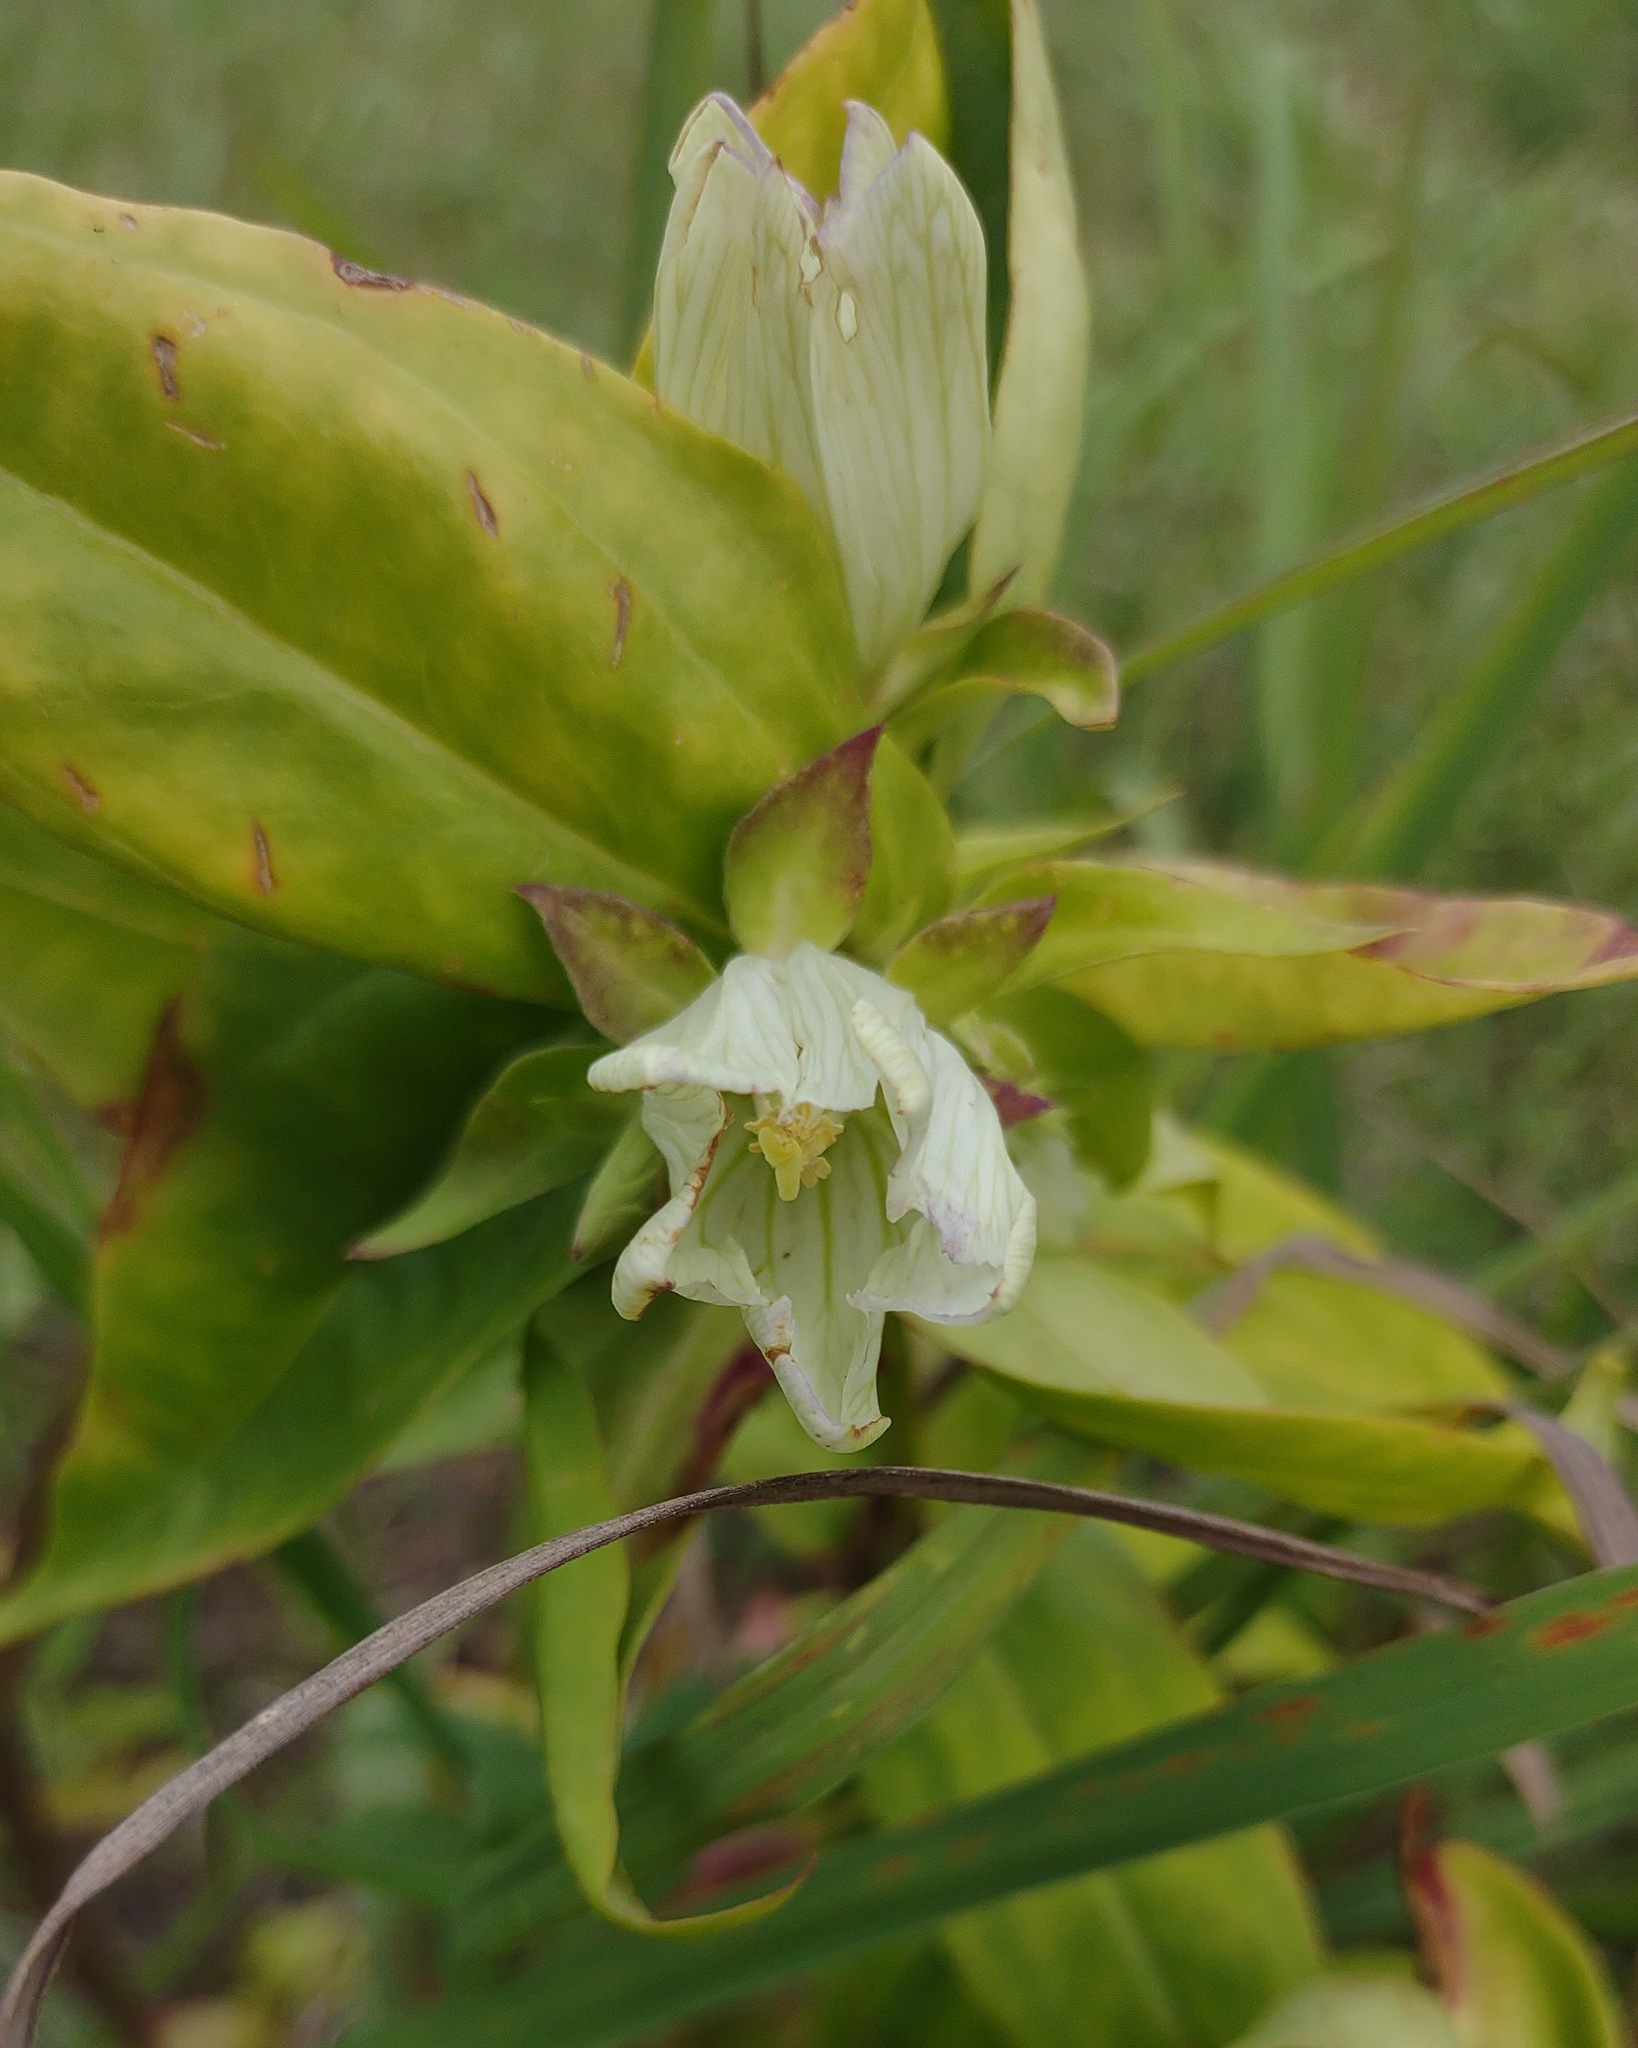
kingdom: Plantae
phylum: Tracheophyta
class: Magnoliopsida
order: Gentianales
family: Gentianaceae
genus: Gentiana
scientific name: Gentiana alba
